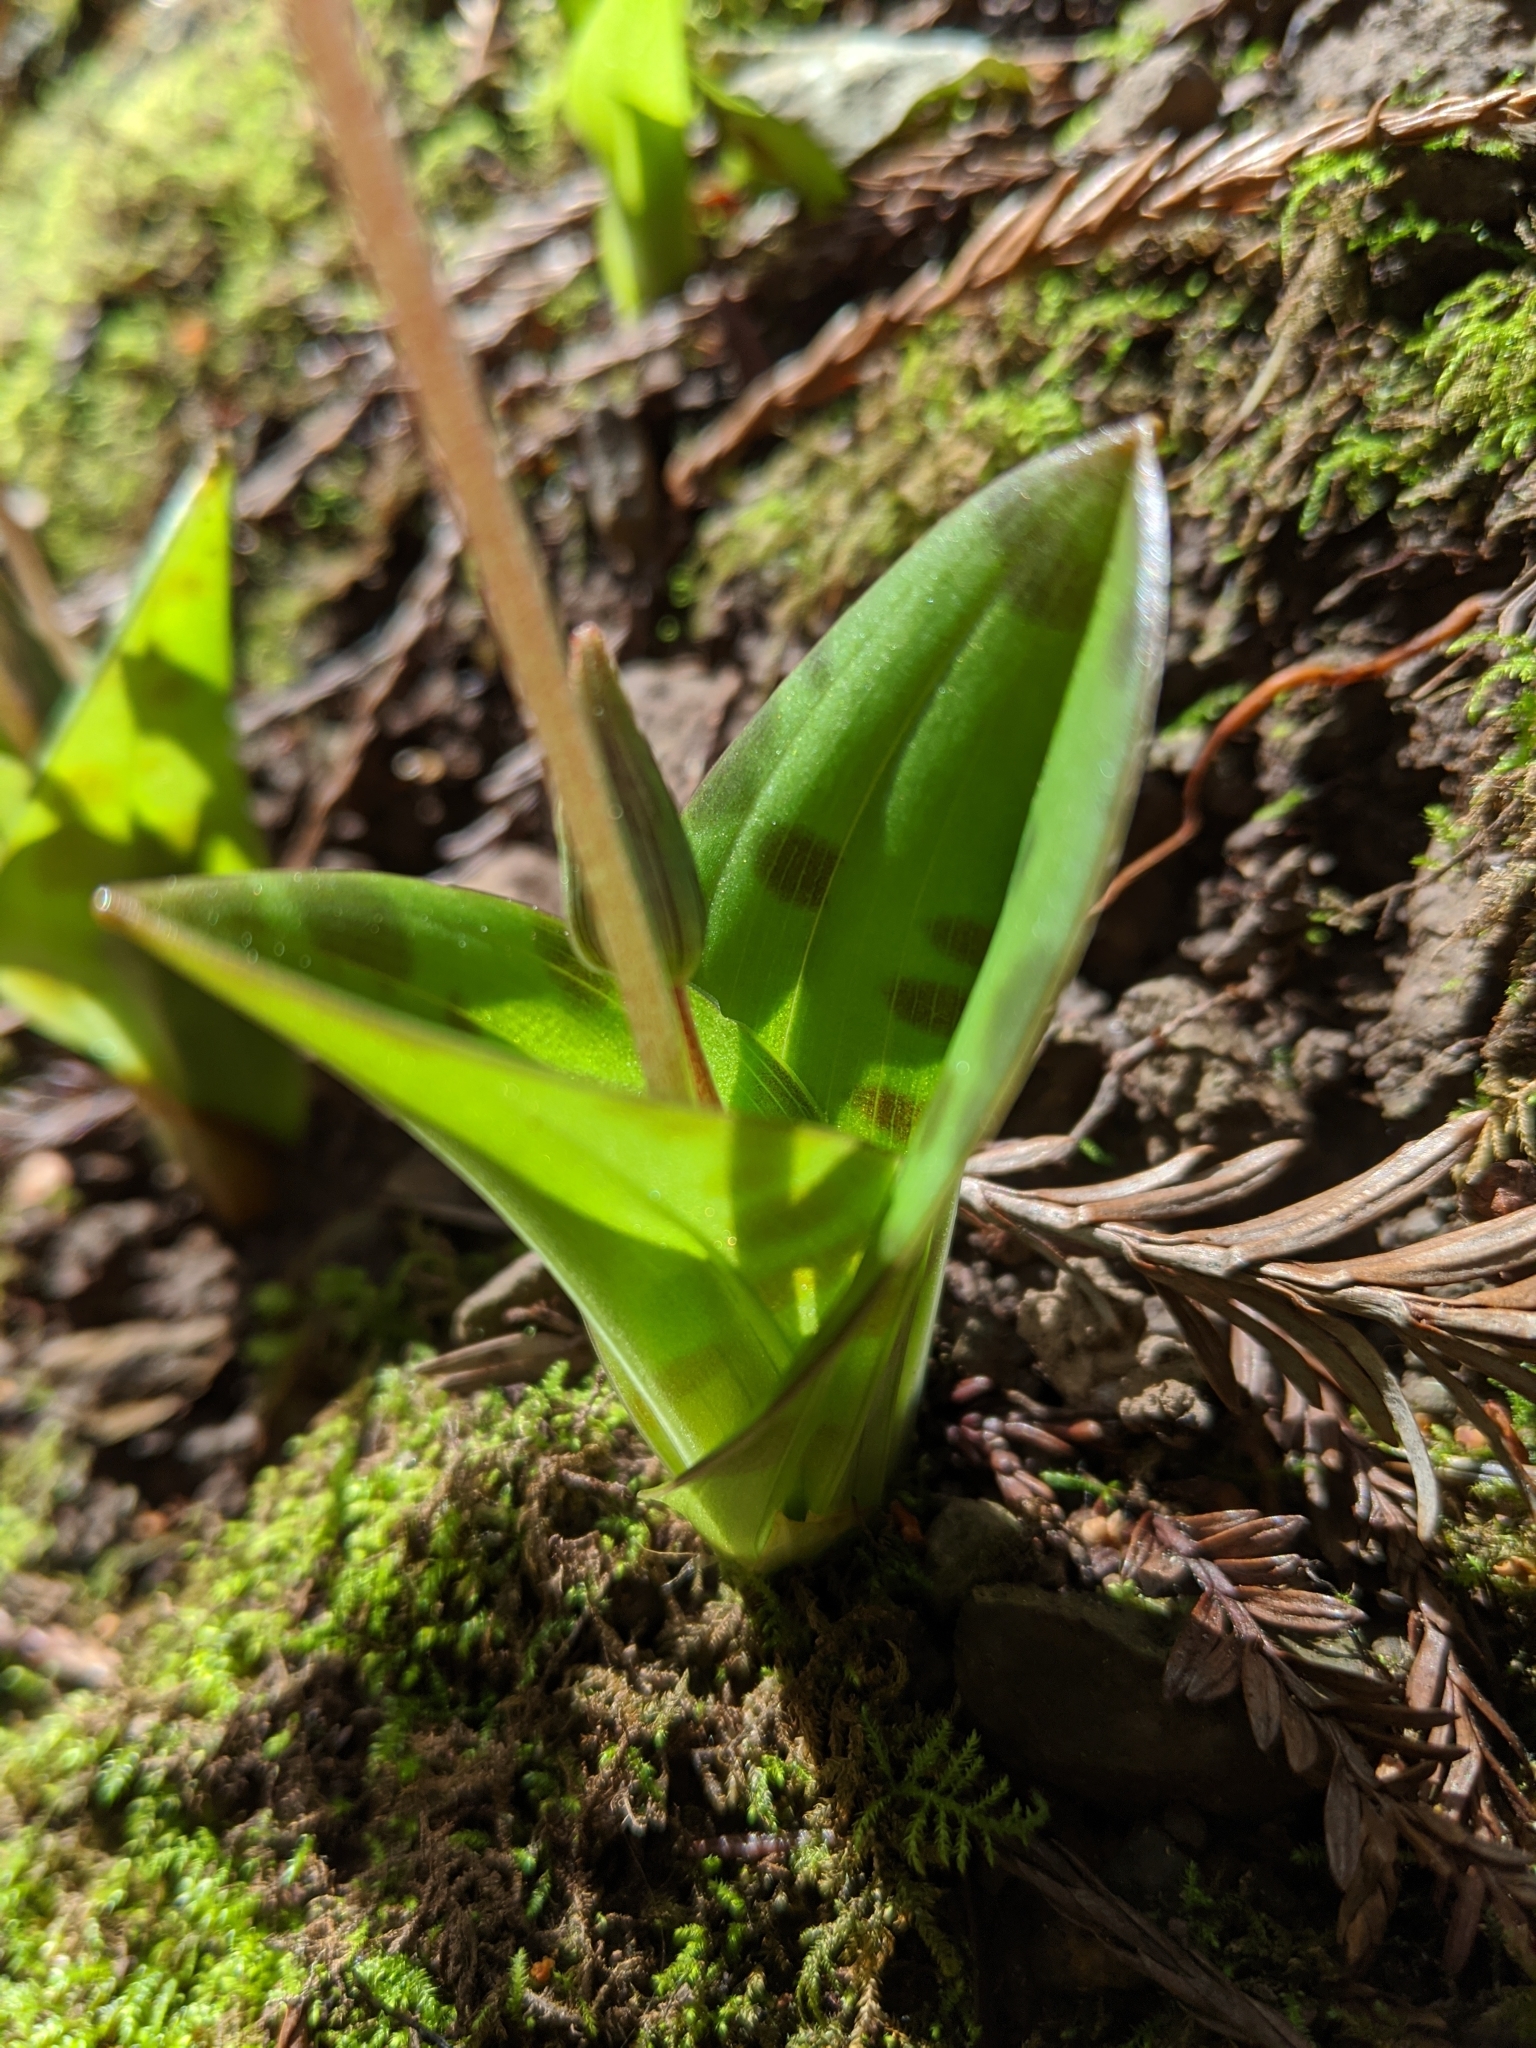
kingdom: Plantae
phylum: Tracheophyta
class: Liliopsida
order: Liliales
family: Liliaceae
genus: Scoliopus
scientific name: Scoliopus bigelovii
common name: Foetid adder's-tongue
